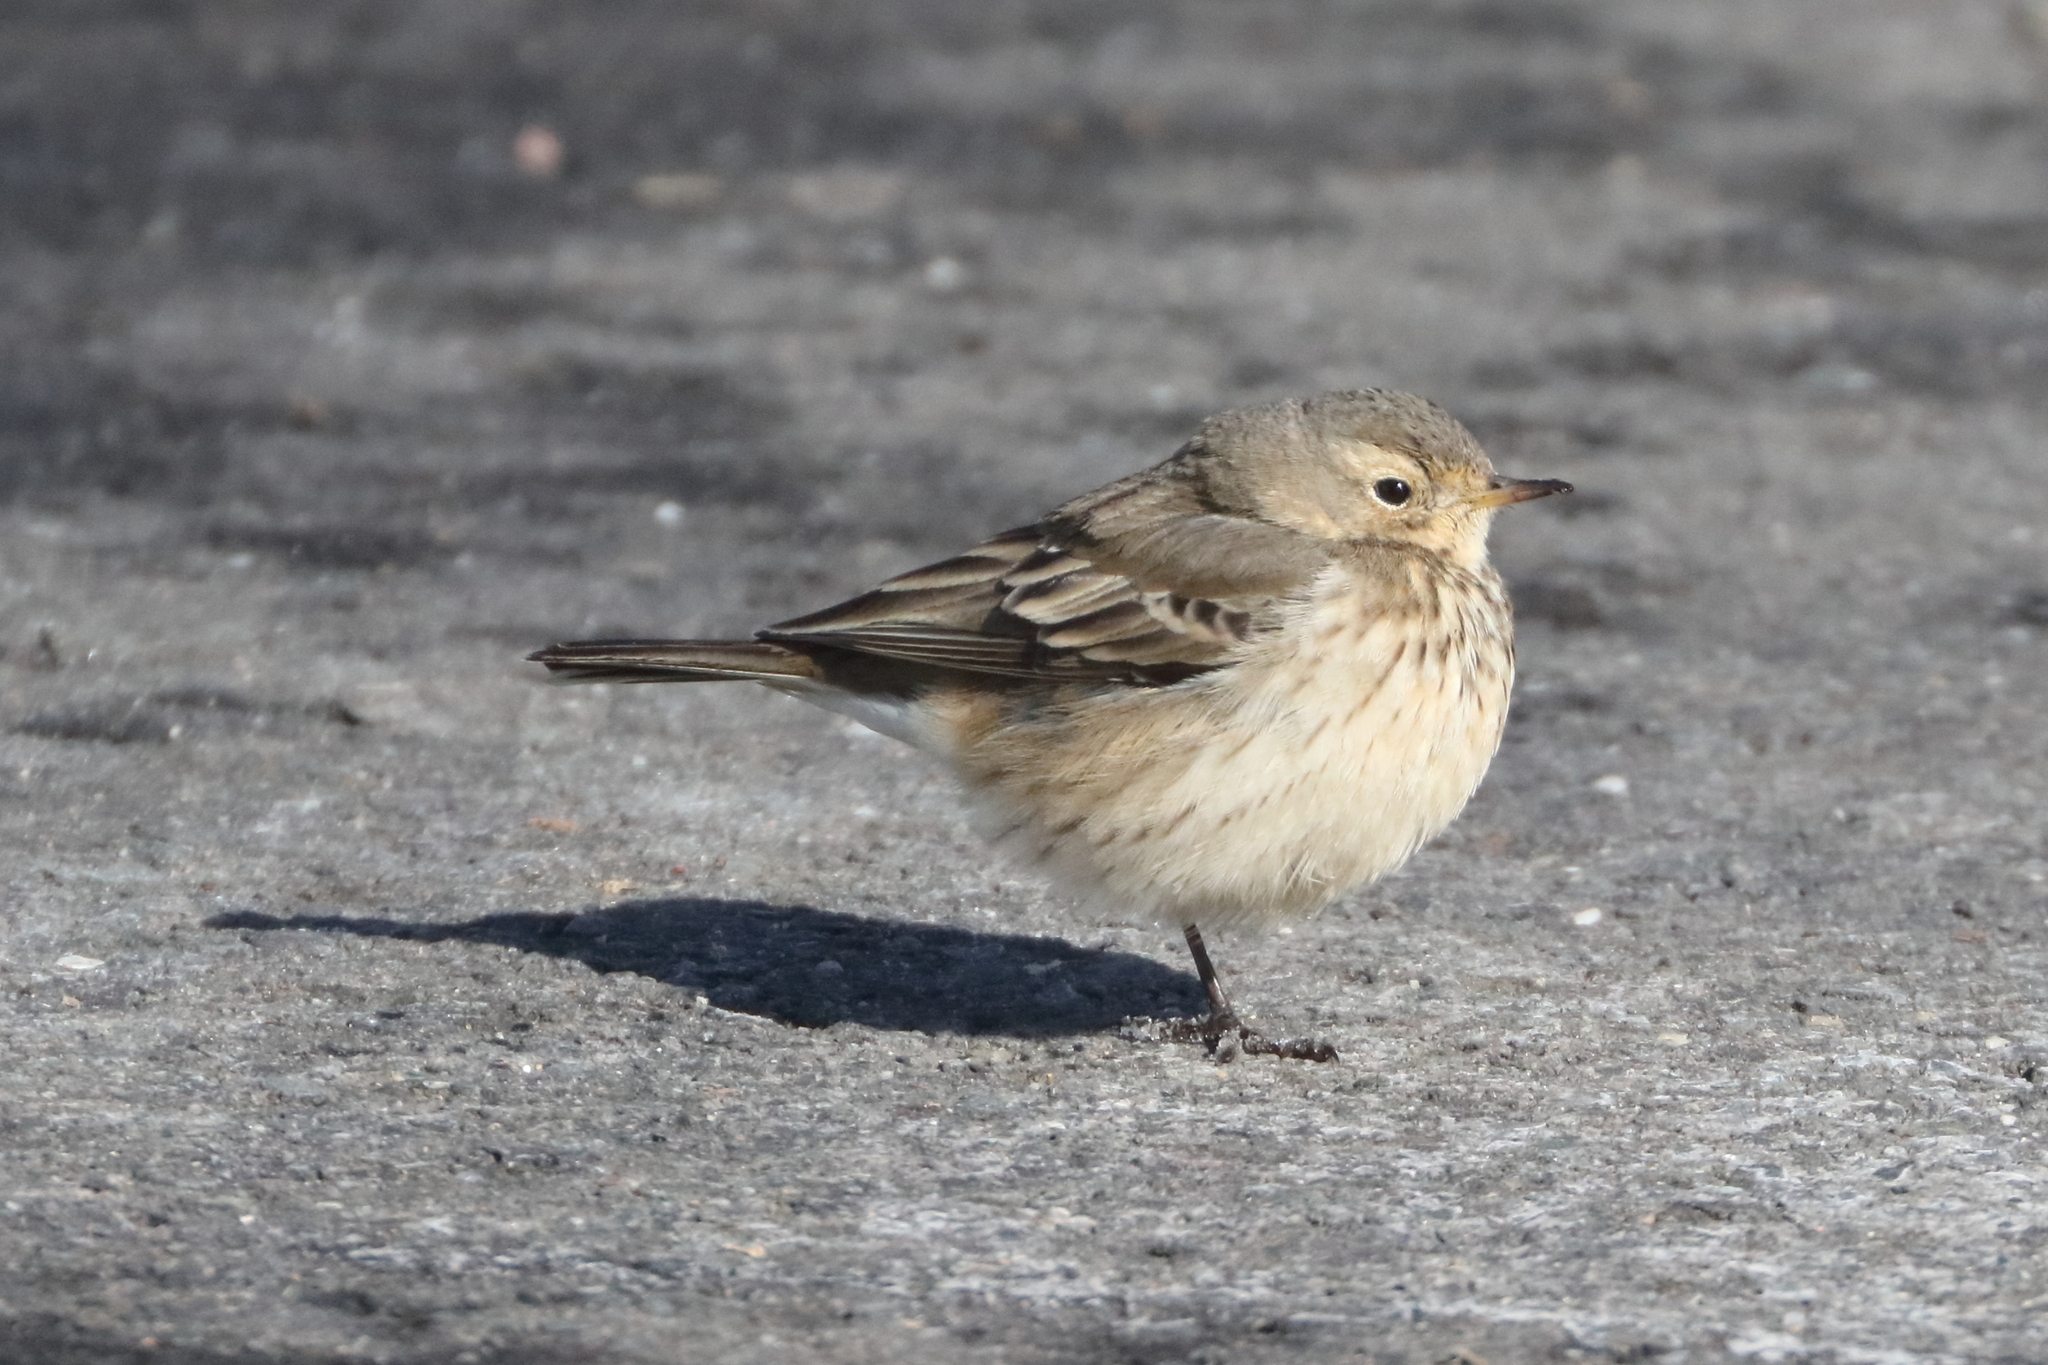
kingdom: Animalia
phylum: Chordata
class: Aves
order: Passeriformes
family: Motacillidae
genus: Anthus
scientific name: Anthus rubescens
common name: Buff-bellied pipit
